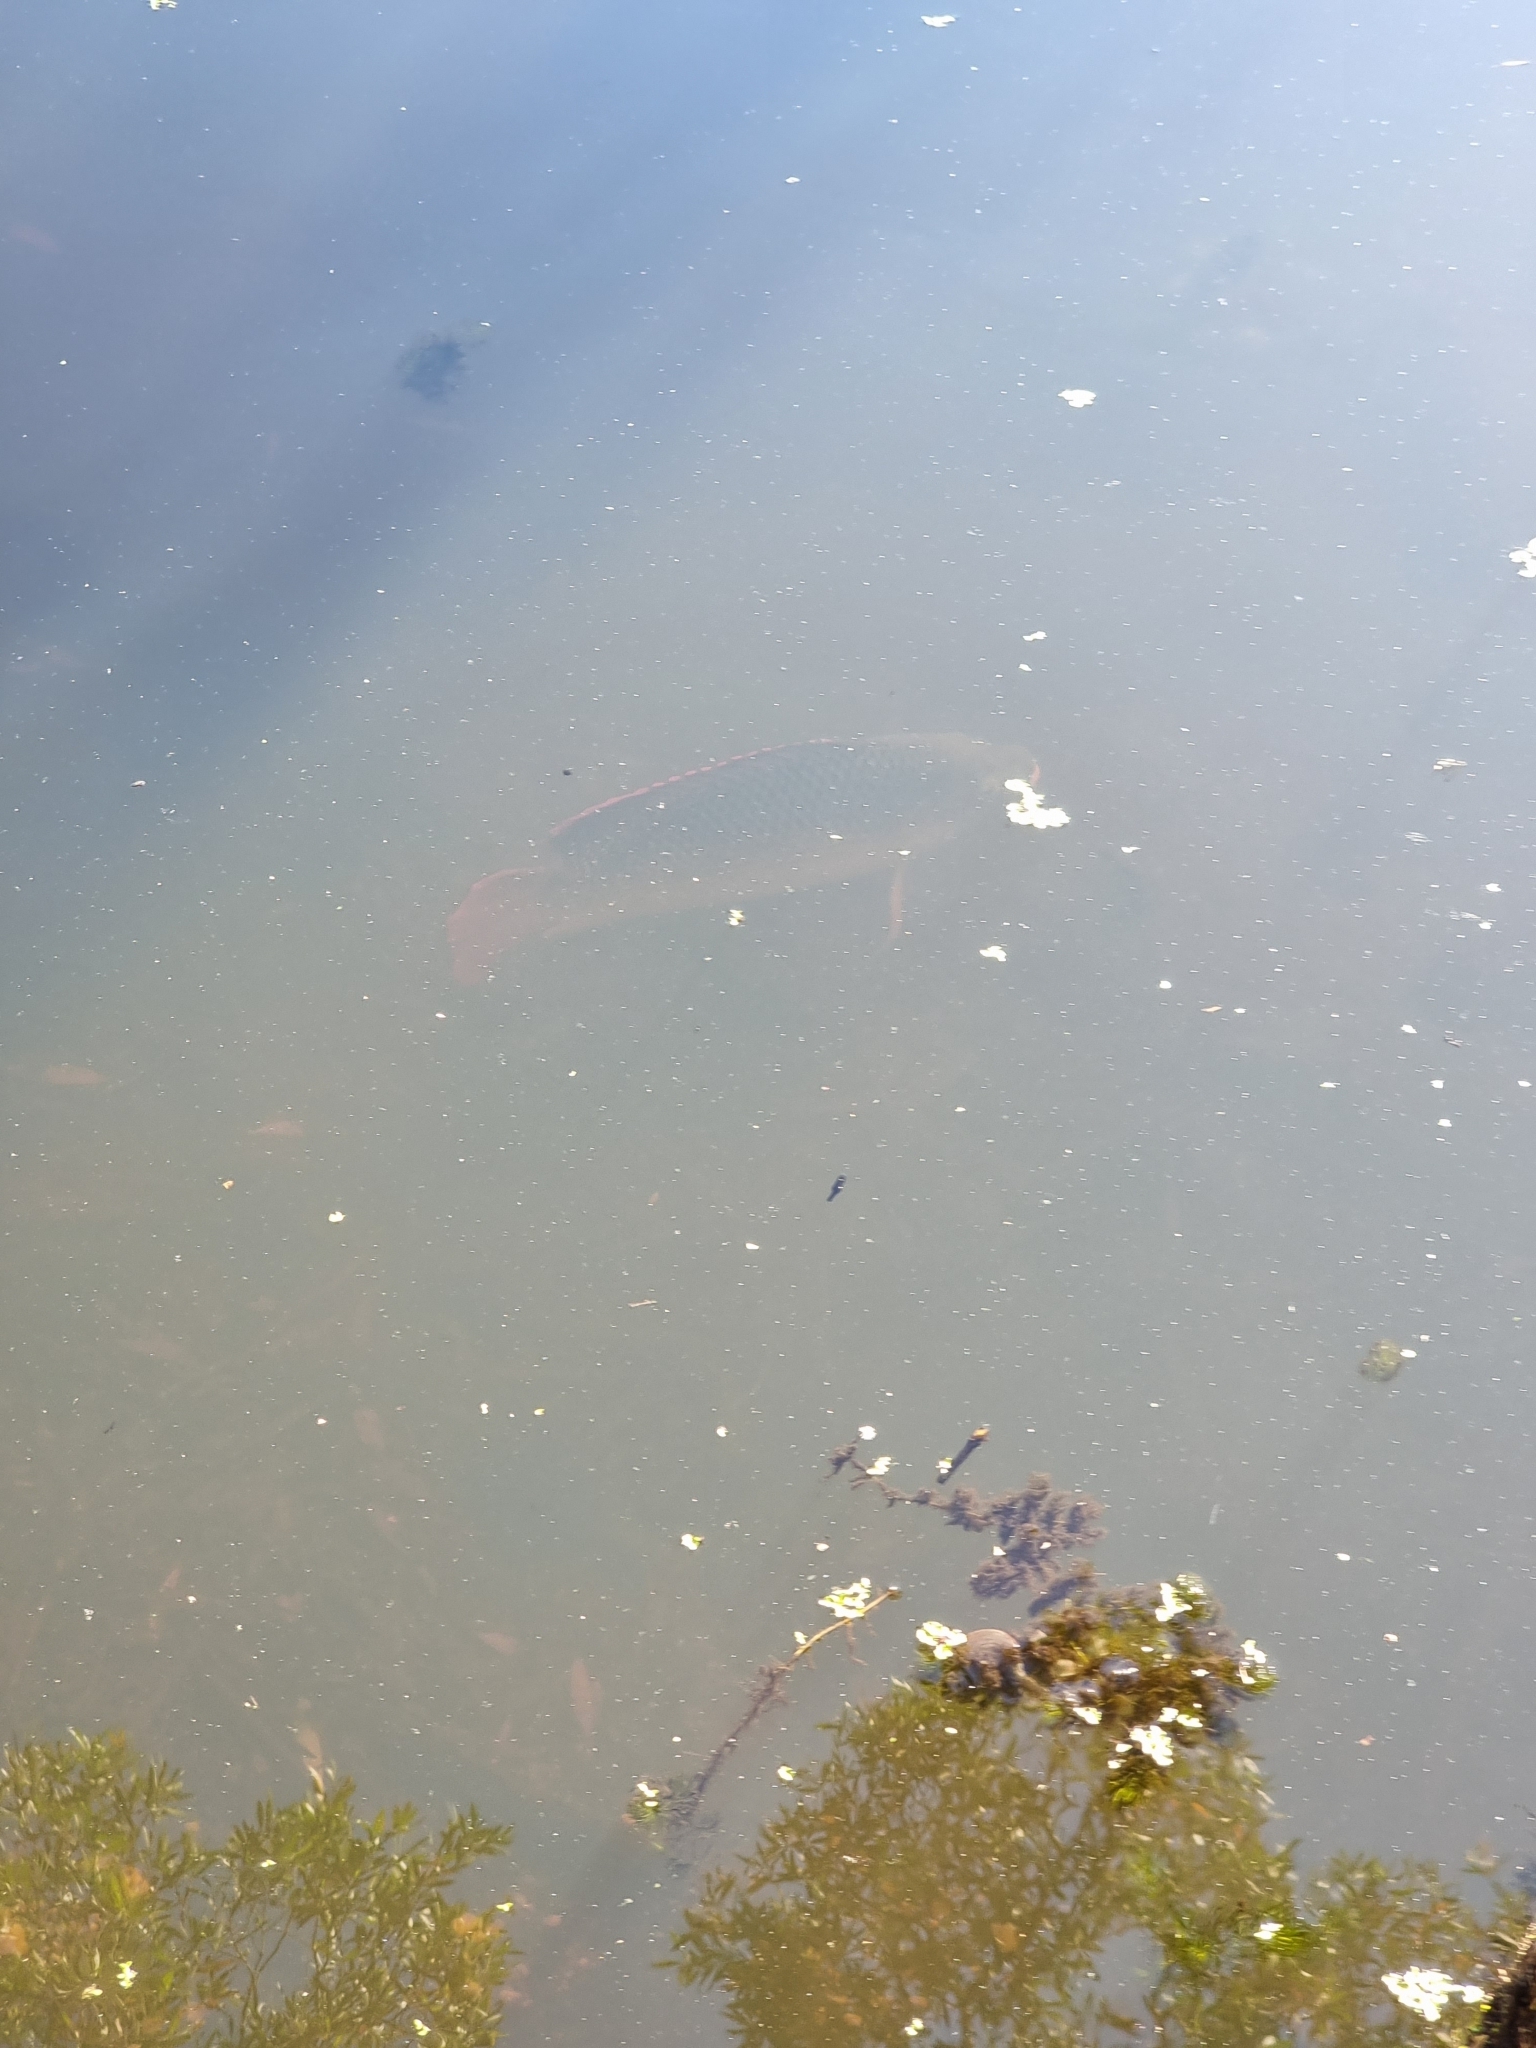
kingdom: Animalia
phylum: Chordata
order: Perciformes
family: Cichlidae
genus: Oreochromis
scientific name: Oreochromis mossambicus
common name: Mozambique tilapia
